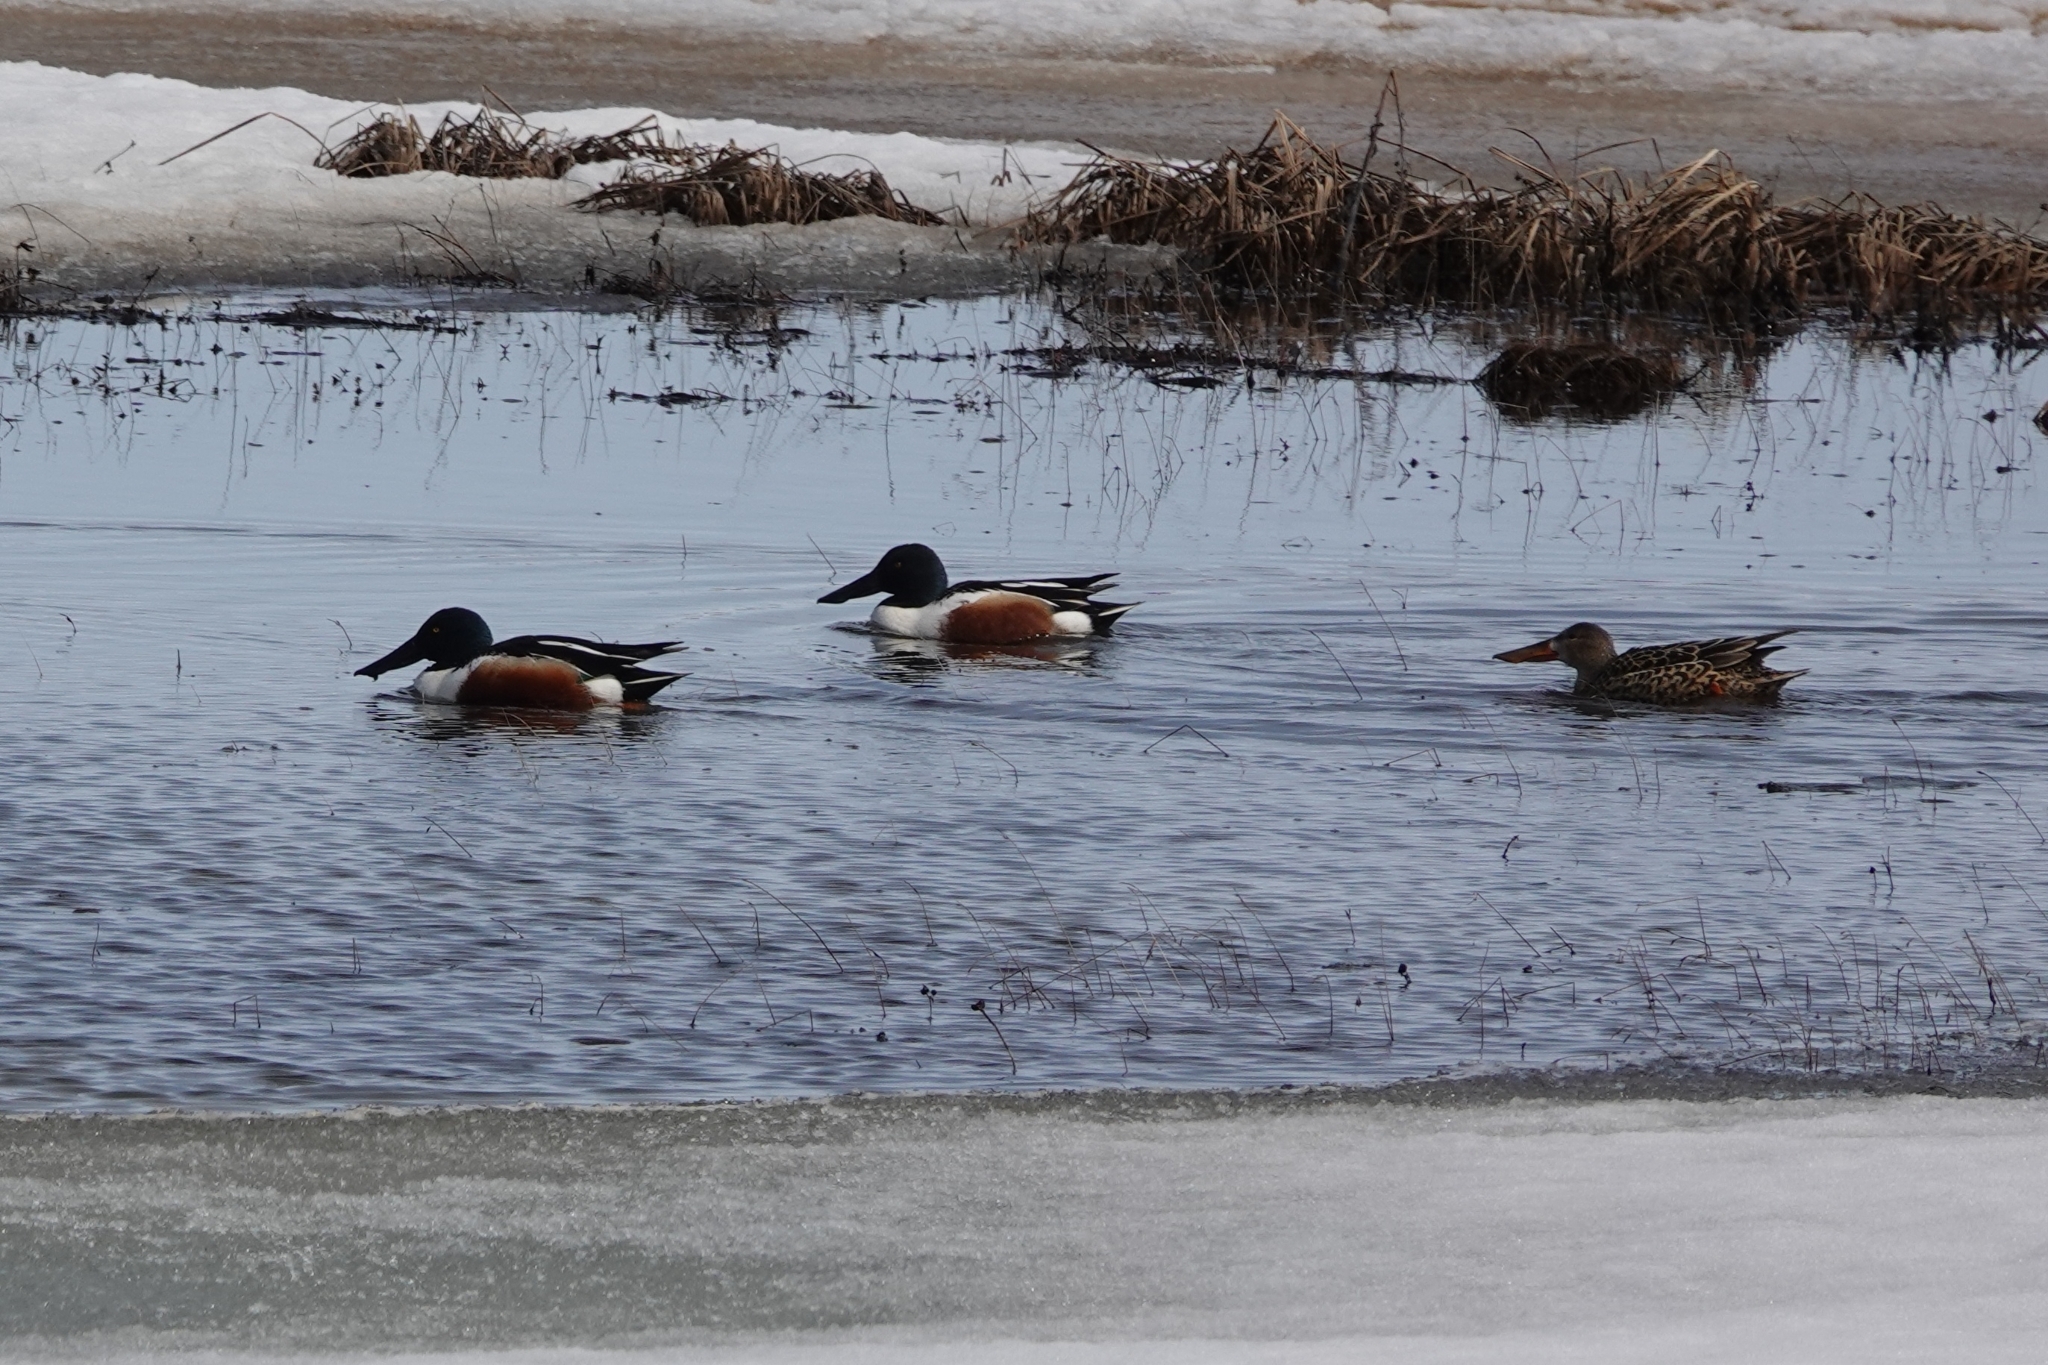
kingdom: Animalia
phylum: Chordata
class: Aves
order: Anseriformes
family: Anatidae
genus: Spatula
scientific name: Spatula clypeata
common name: Northern shoveler
